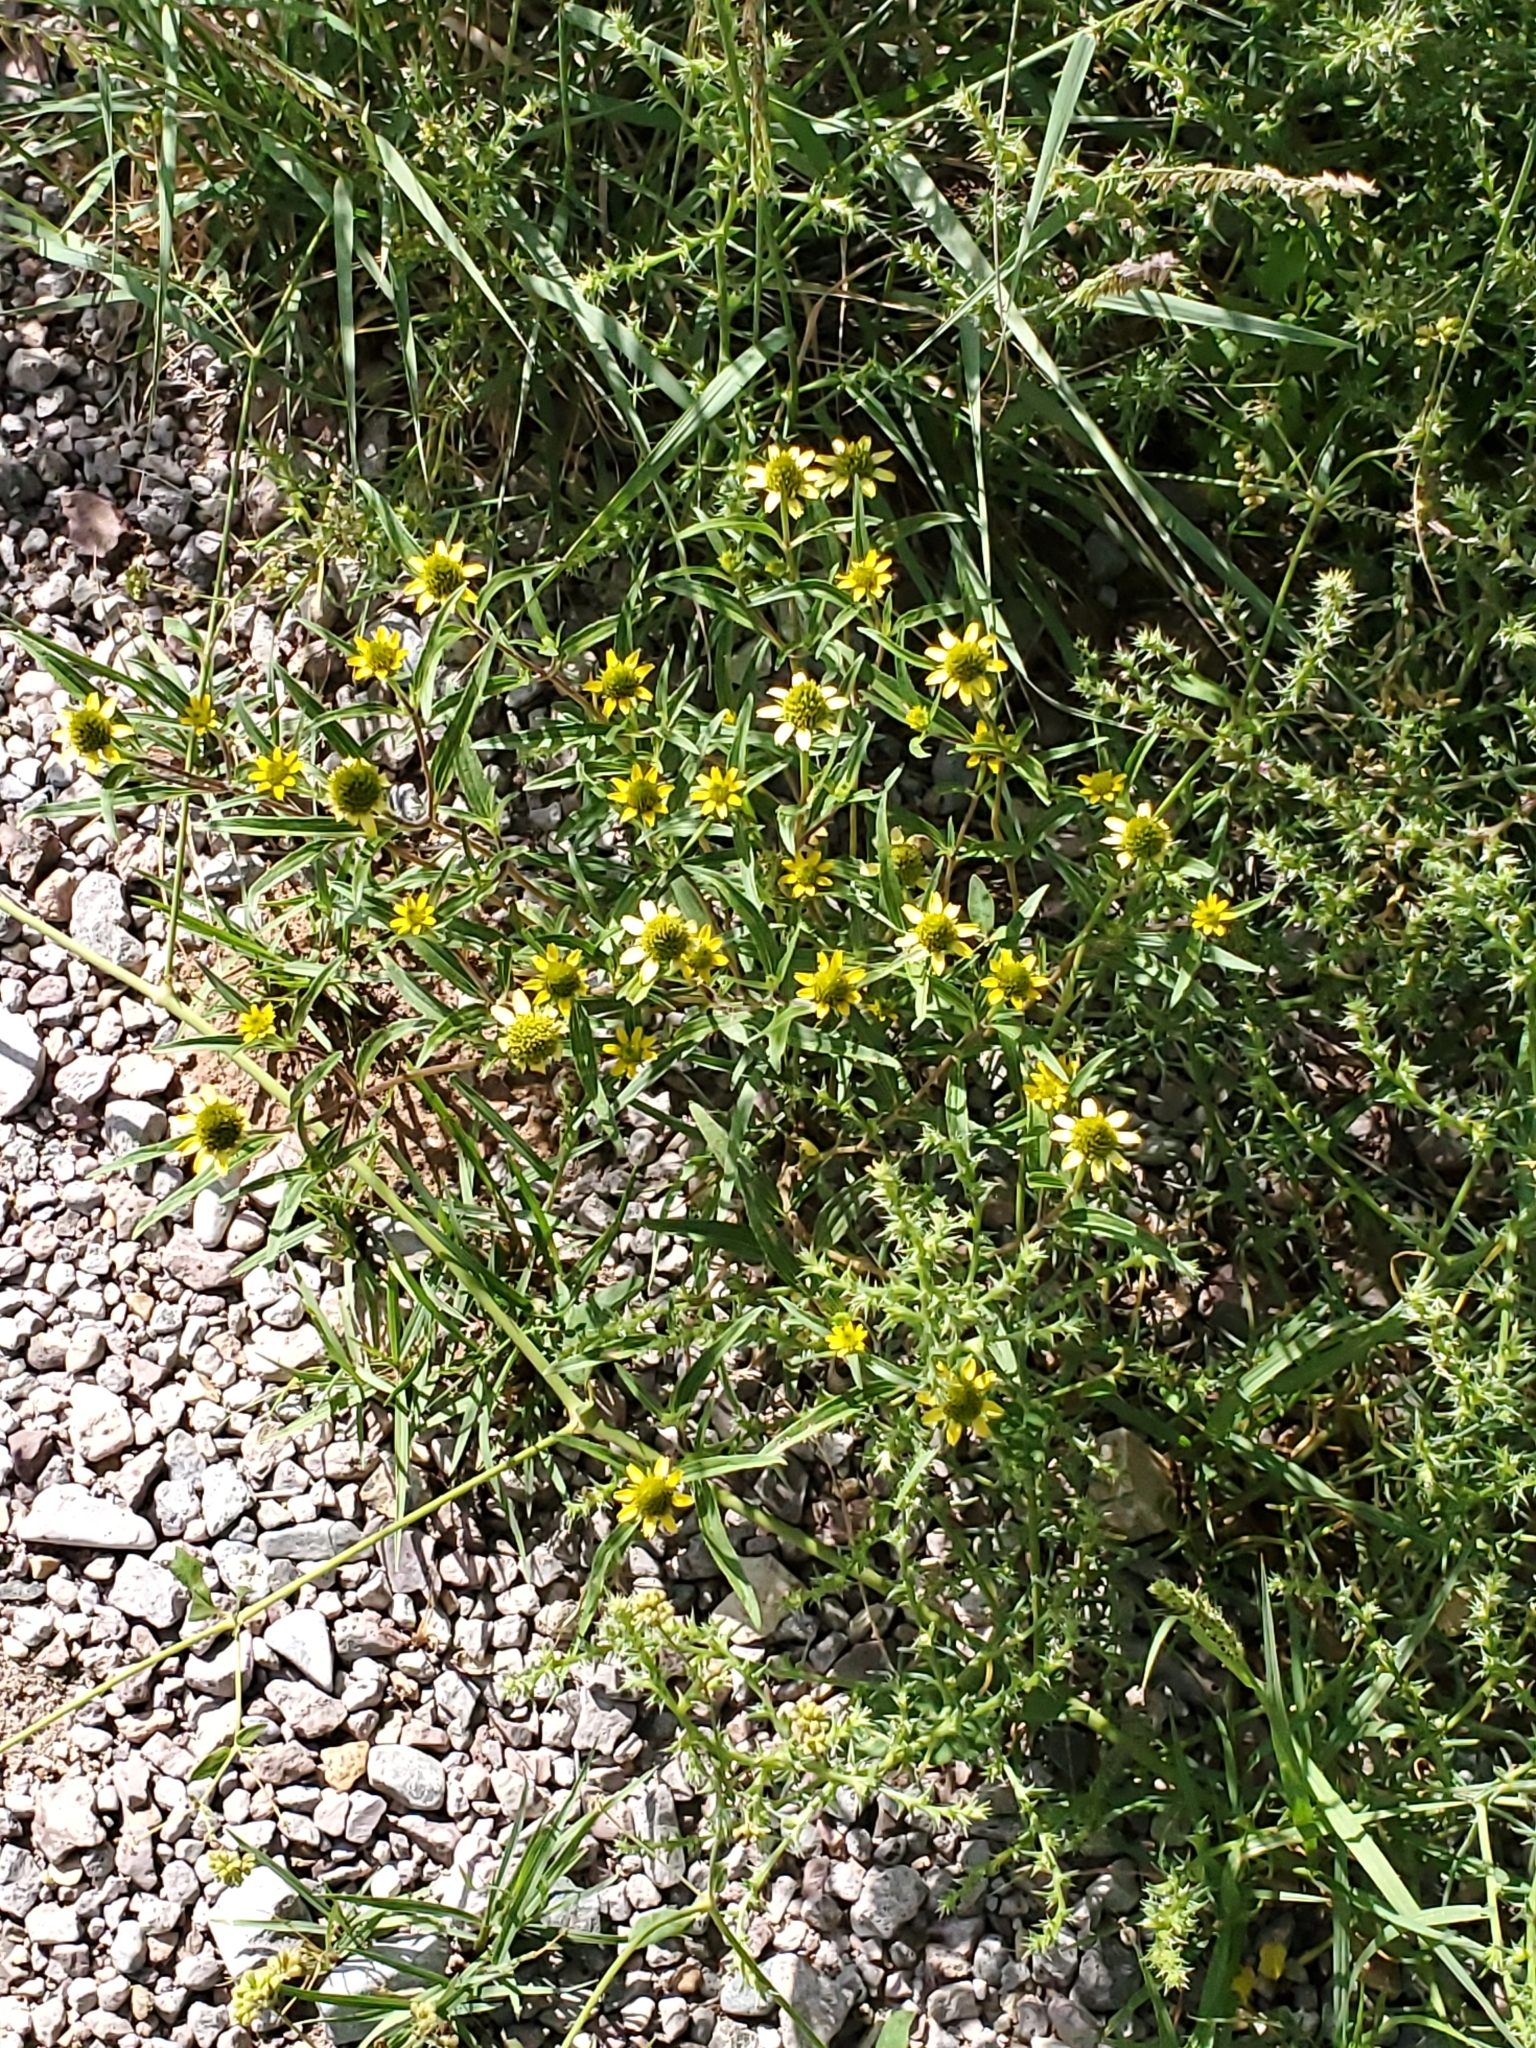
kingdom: Plantae
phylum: Tracheophyta
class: Magnoliopsida
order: Asterales
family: Asteraceae
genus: Sanvitalia
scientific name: Sanvitalia abertii
